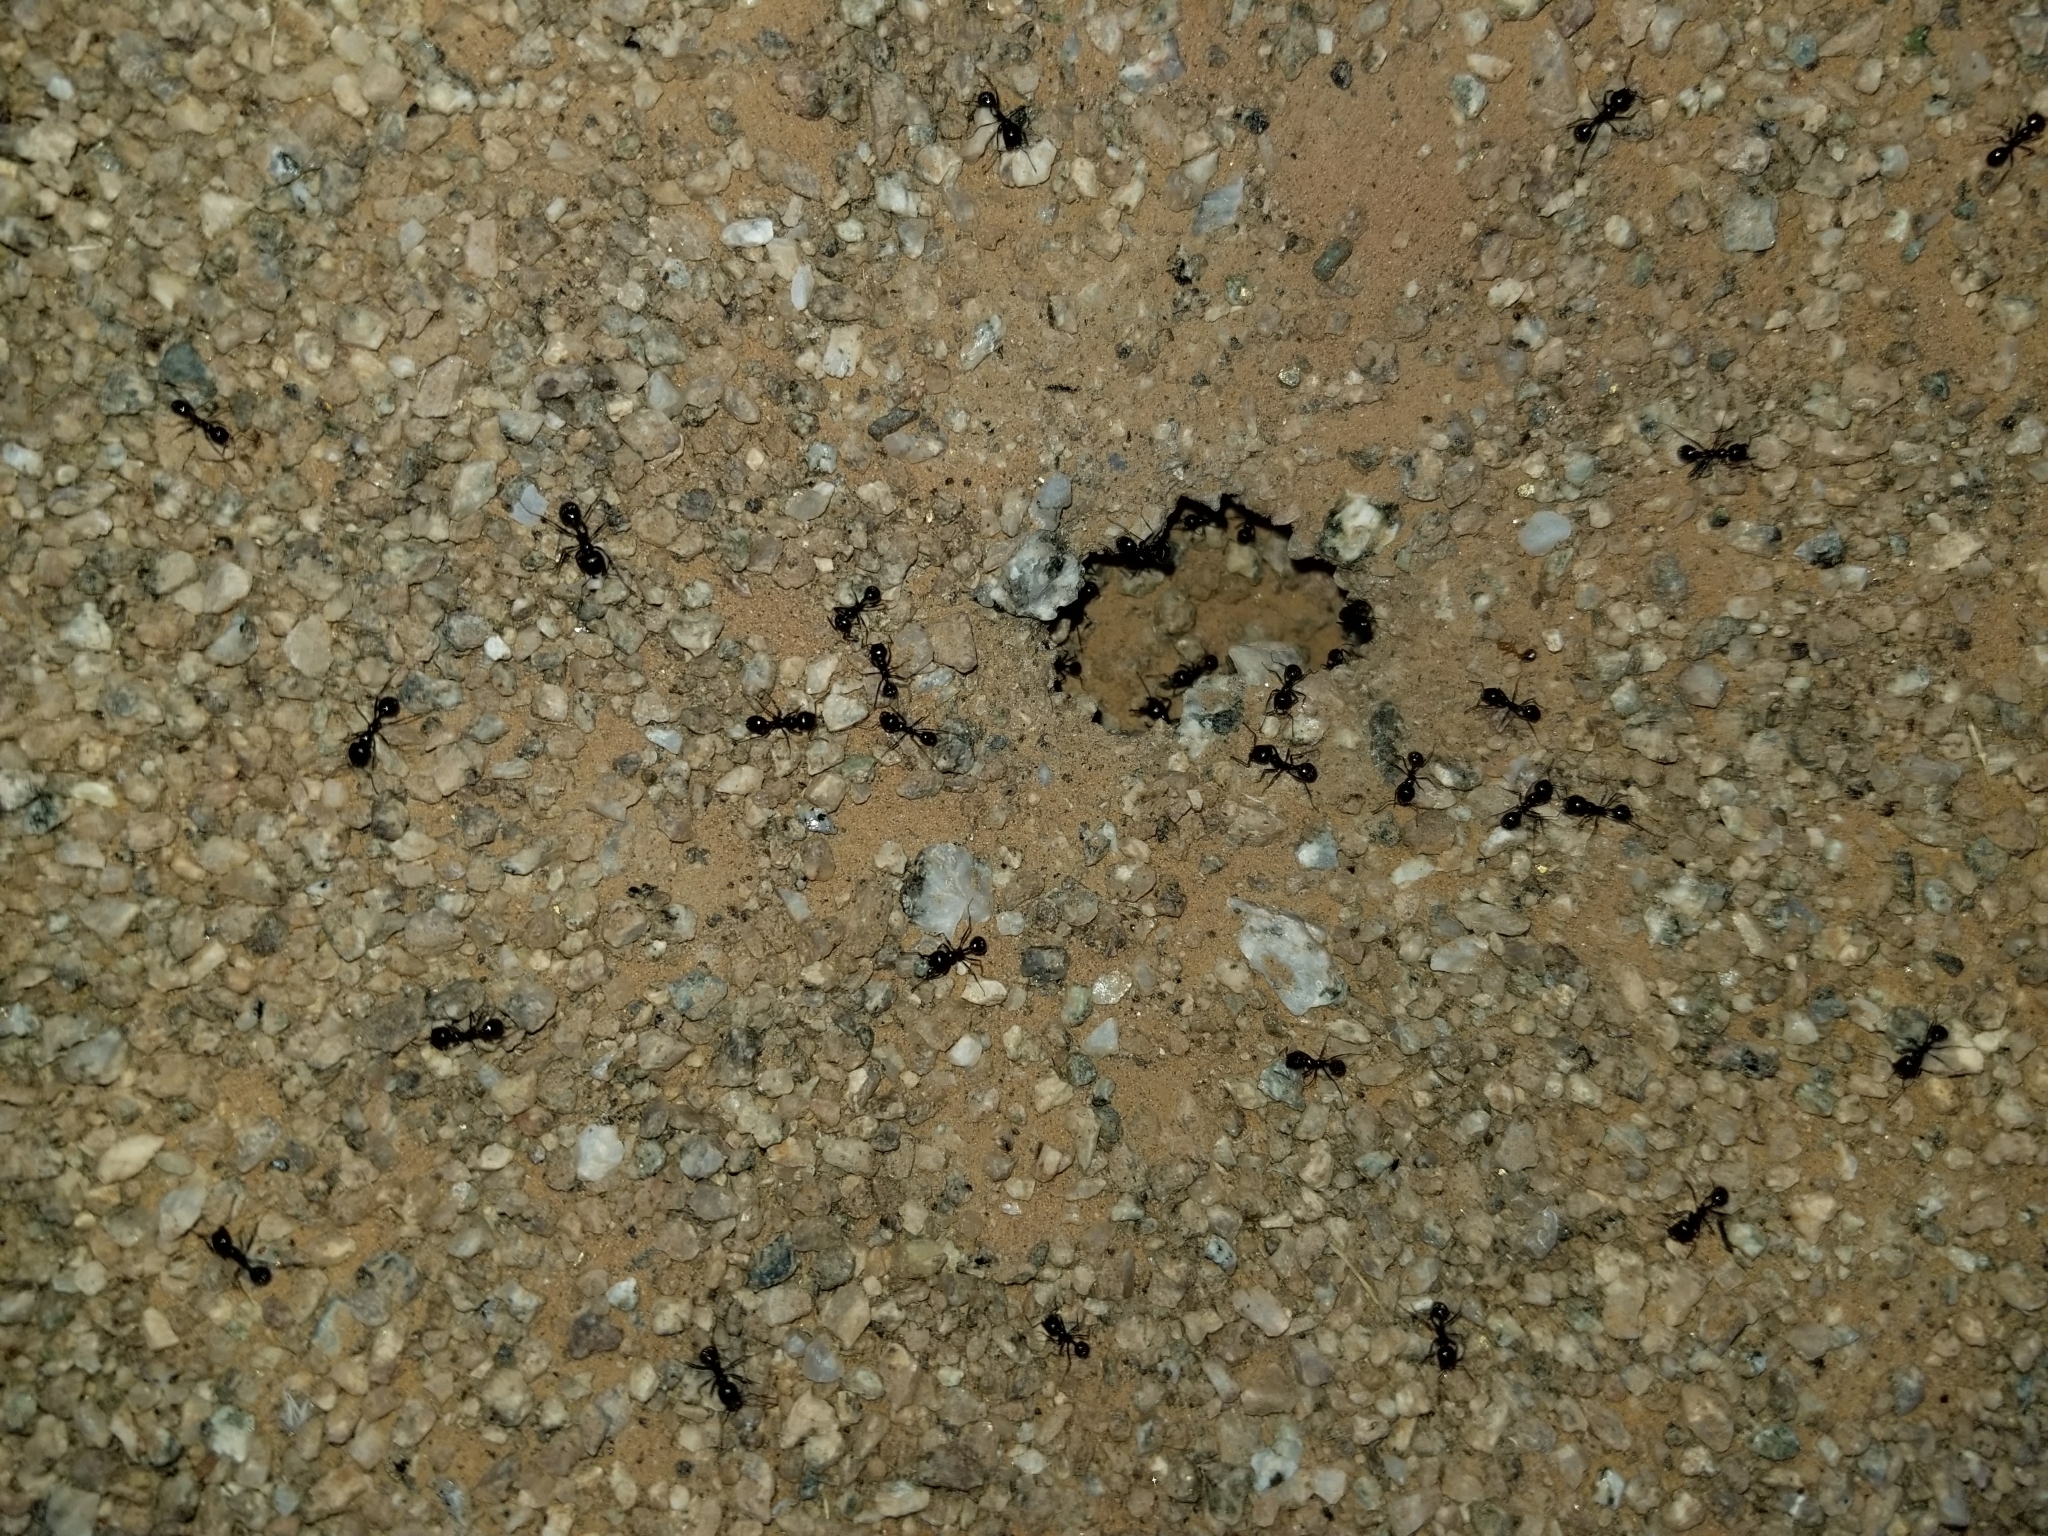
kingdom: Animalia
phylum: Arthropoda
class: Insecta
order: Hymenoptera
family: Formicidae
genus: Messor
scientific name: Messor pergandei
